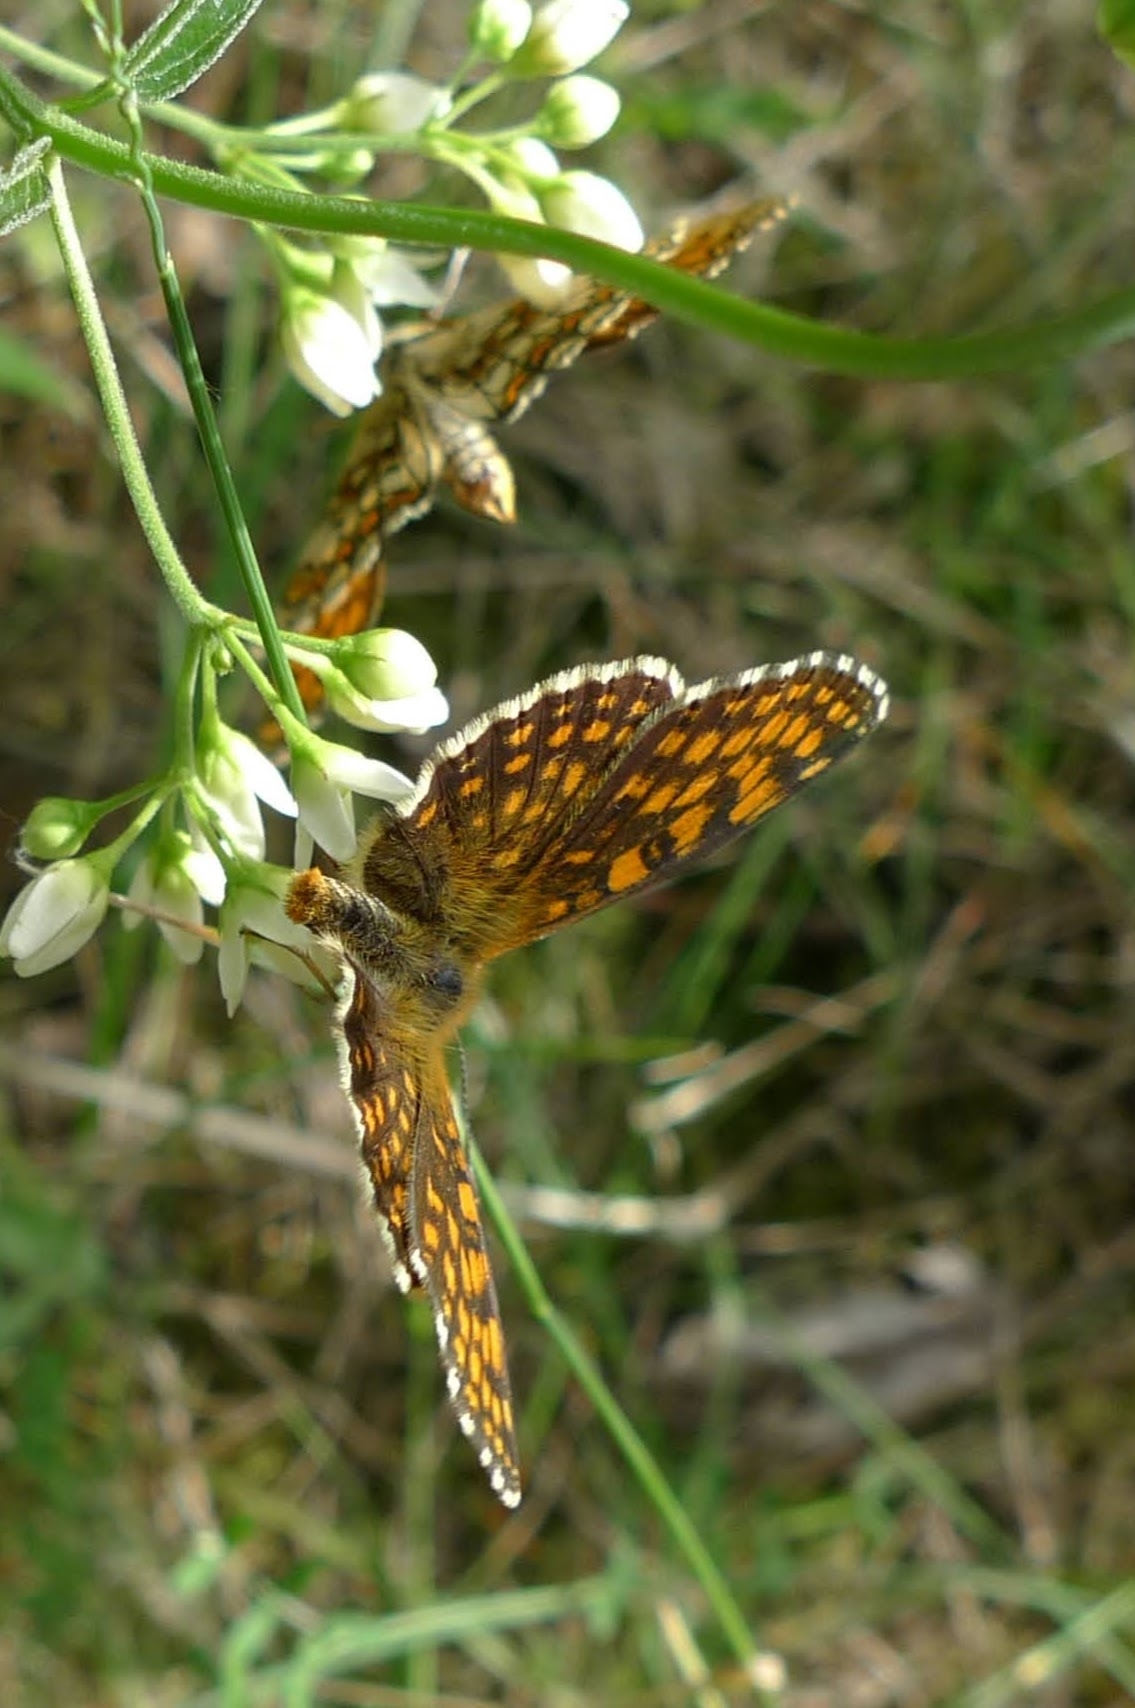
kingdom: Animalia
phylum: Arthropoda
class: Insecta
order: Lepidoptera
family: Nymphalidae
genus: Melitaea
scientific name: Melitaea athalia
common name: Heath fritillary
